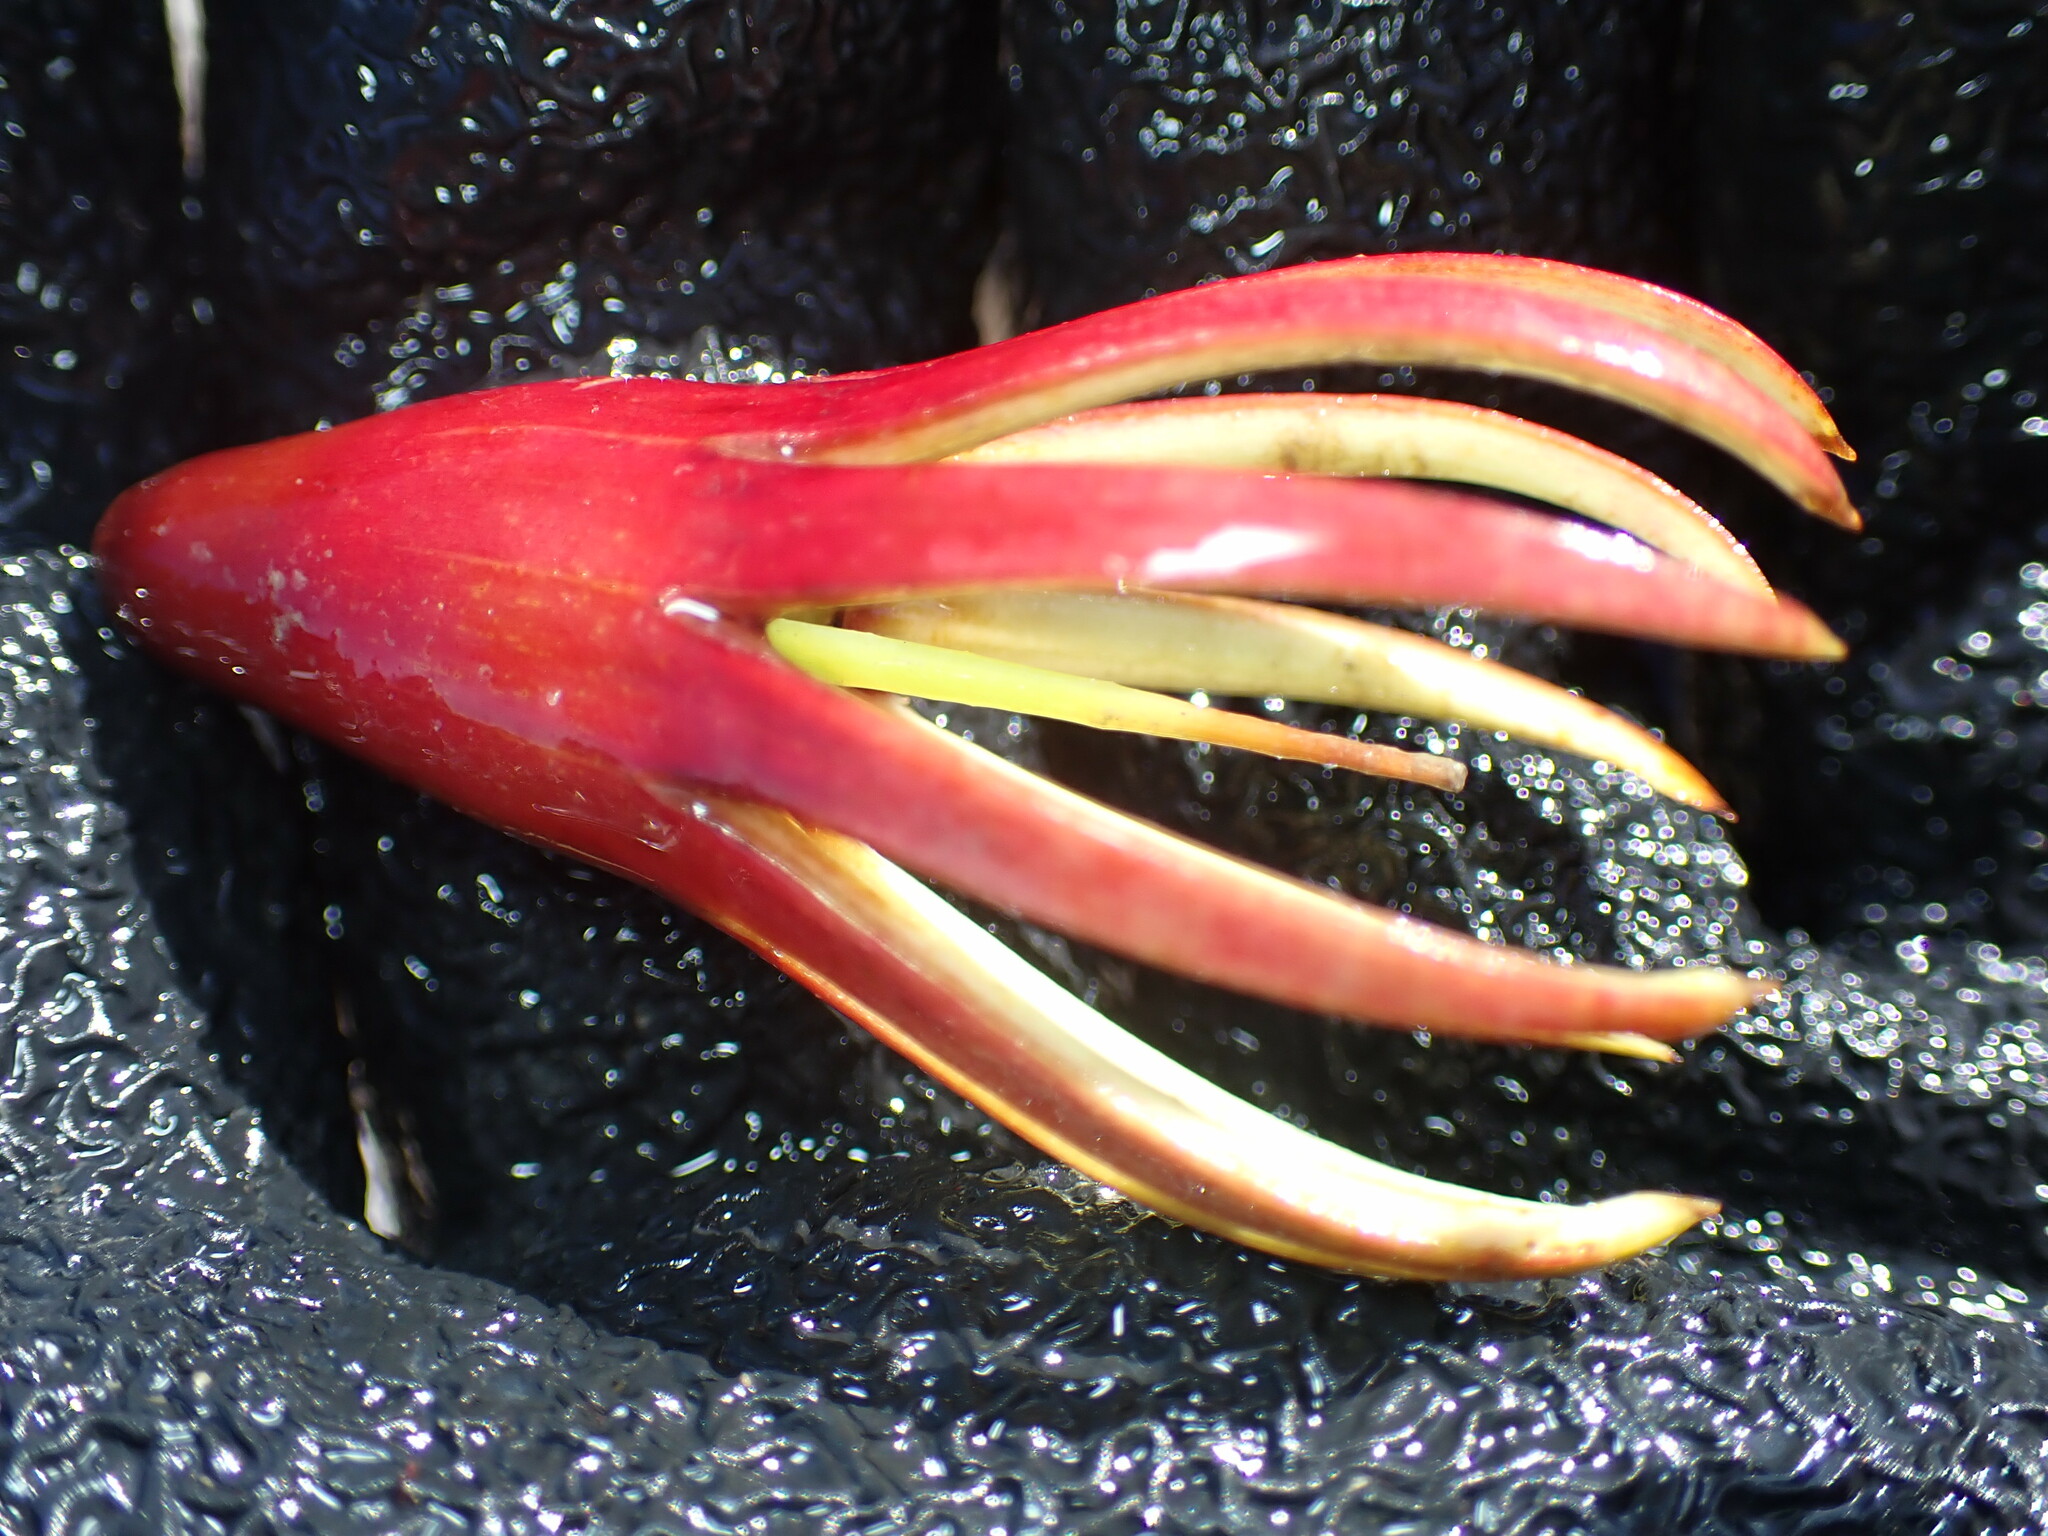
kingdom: Plantae
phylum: Tracheophyta
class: Magnoliopsida
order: Malpighiales
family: Rhizophoraceae
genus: Bruguiera
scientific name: Bruguiera gymnorhiza
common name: Oriental mangrove
